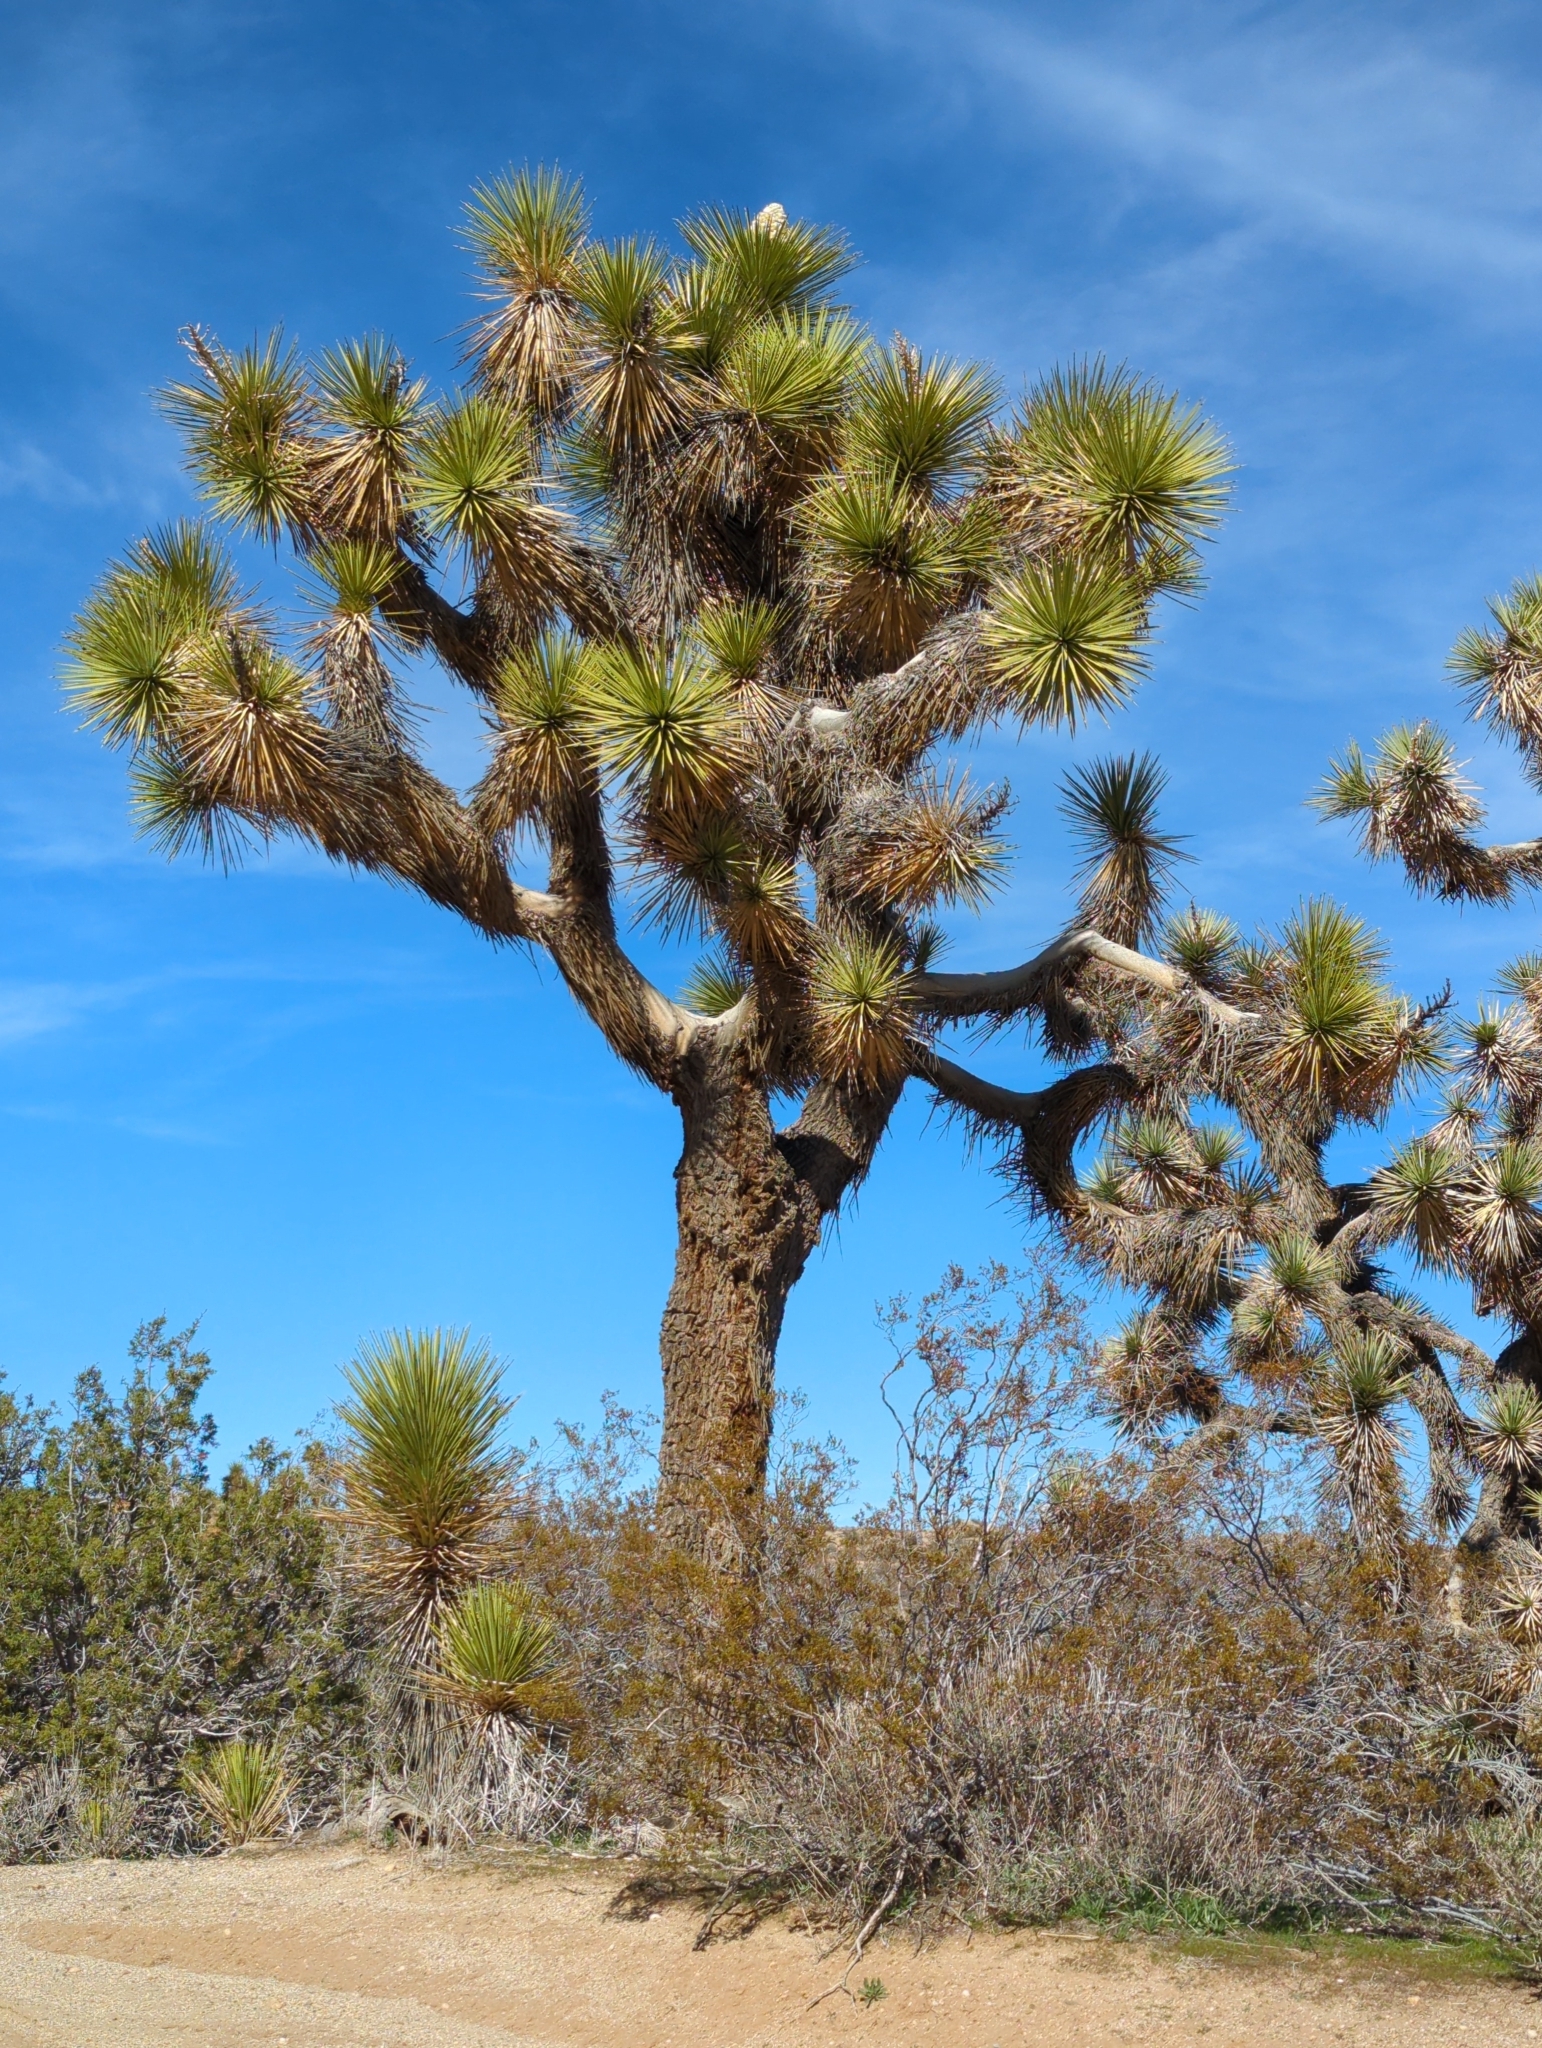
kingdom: Plantae
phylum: Tracheophyta
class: Liliopsida
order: Asparagales
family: Asparagaceae
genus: Yucca
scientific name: Yucca brevifolia
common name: Joshua tree
